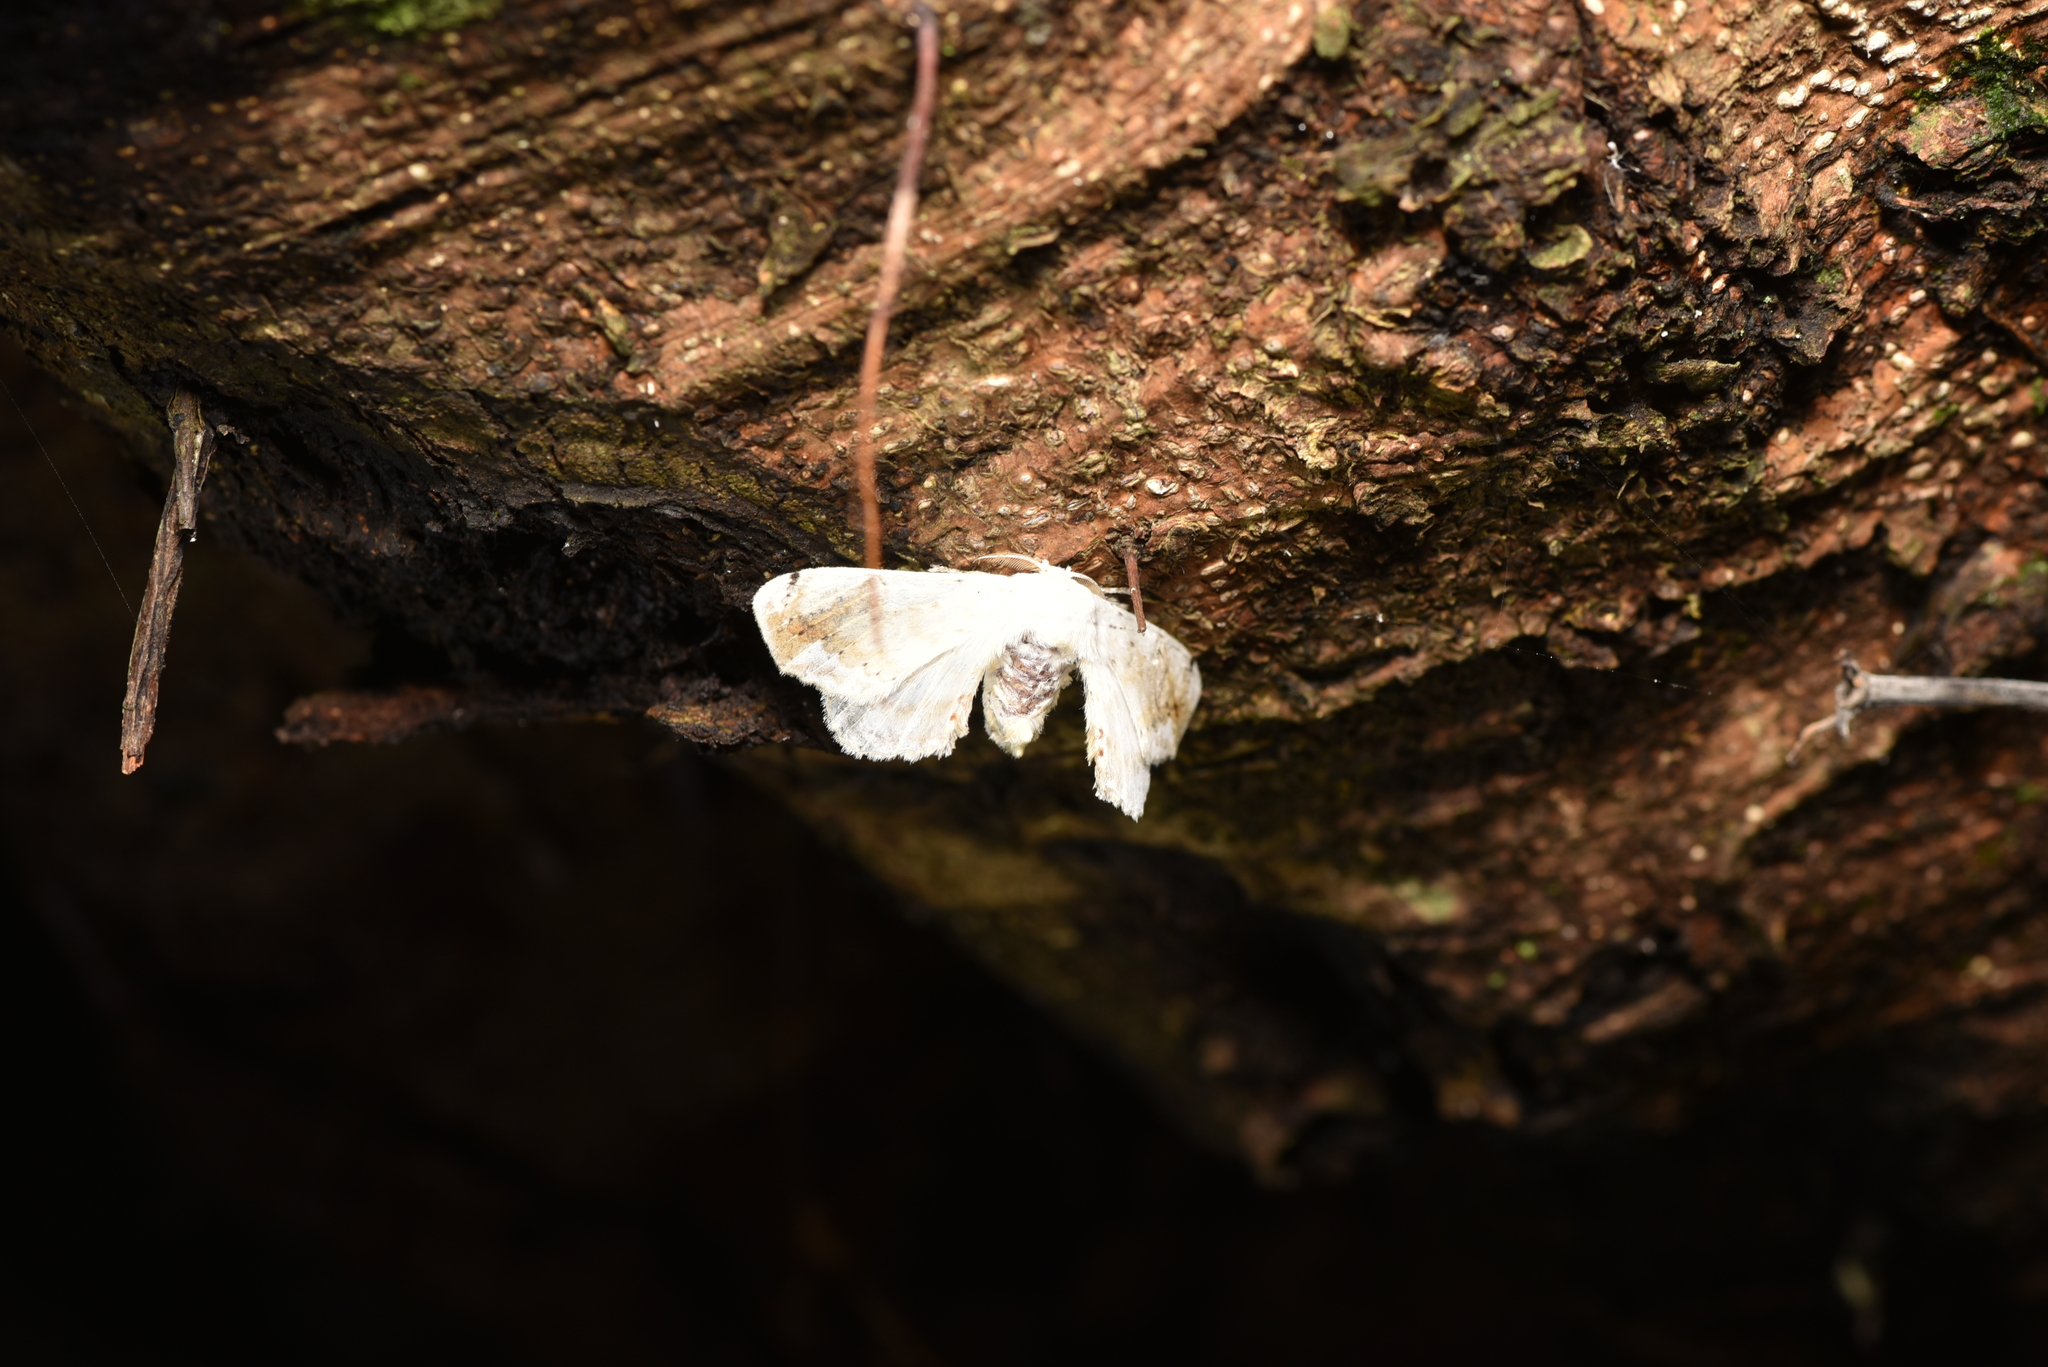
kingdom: Animalia
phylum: Arthropoda
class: Insecta
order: Lepidoptera
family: Bombycidae
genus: Ernolatia
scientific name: Ernolatia moorei
